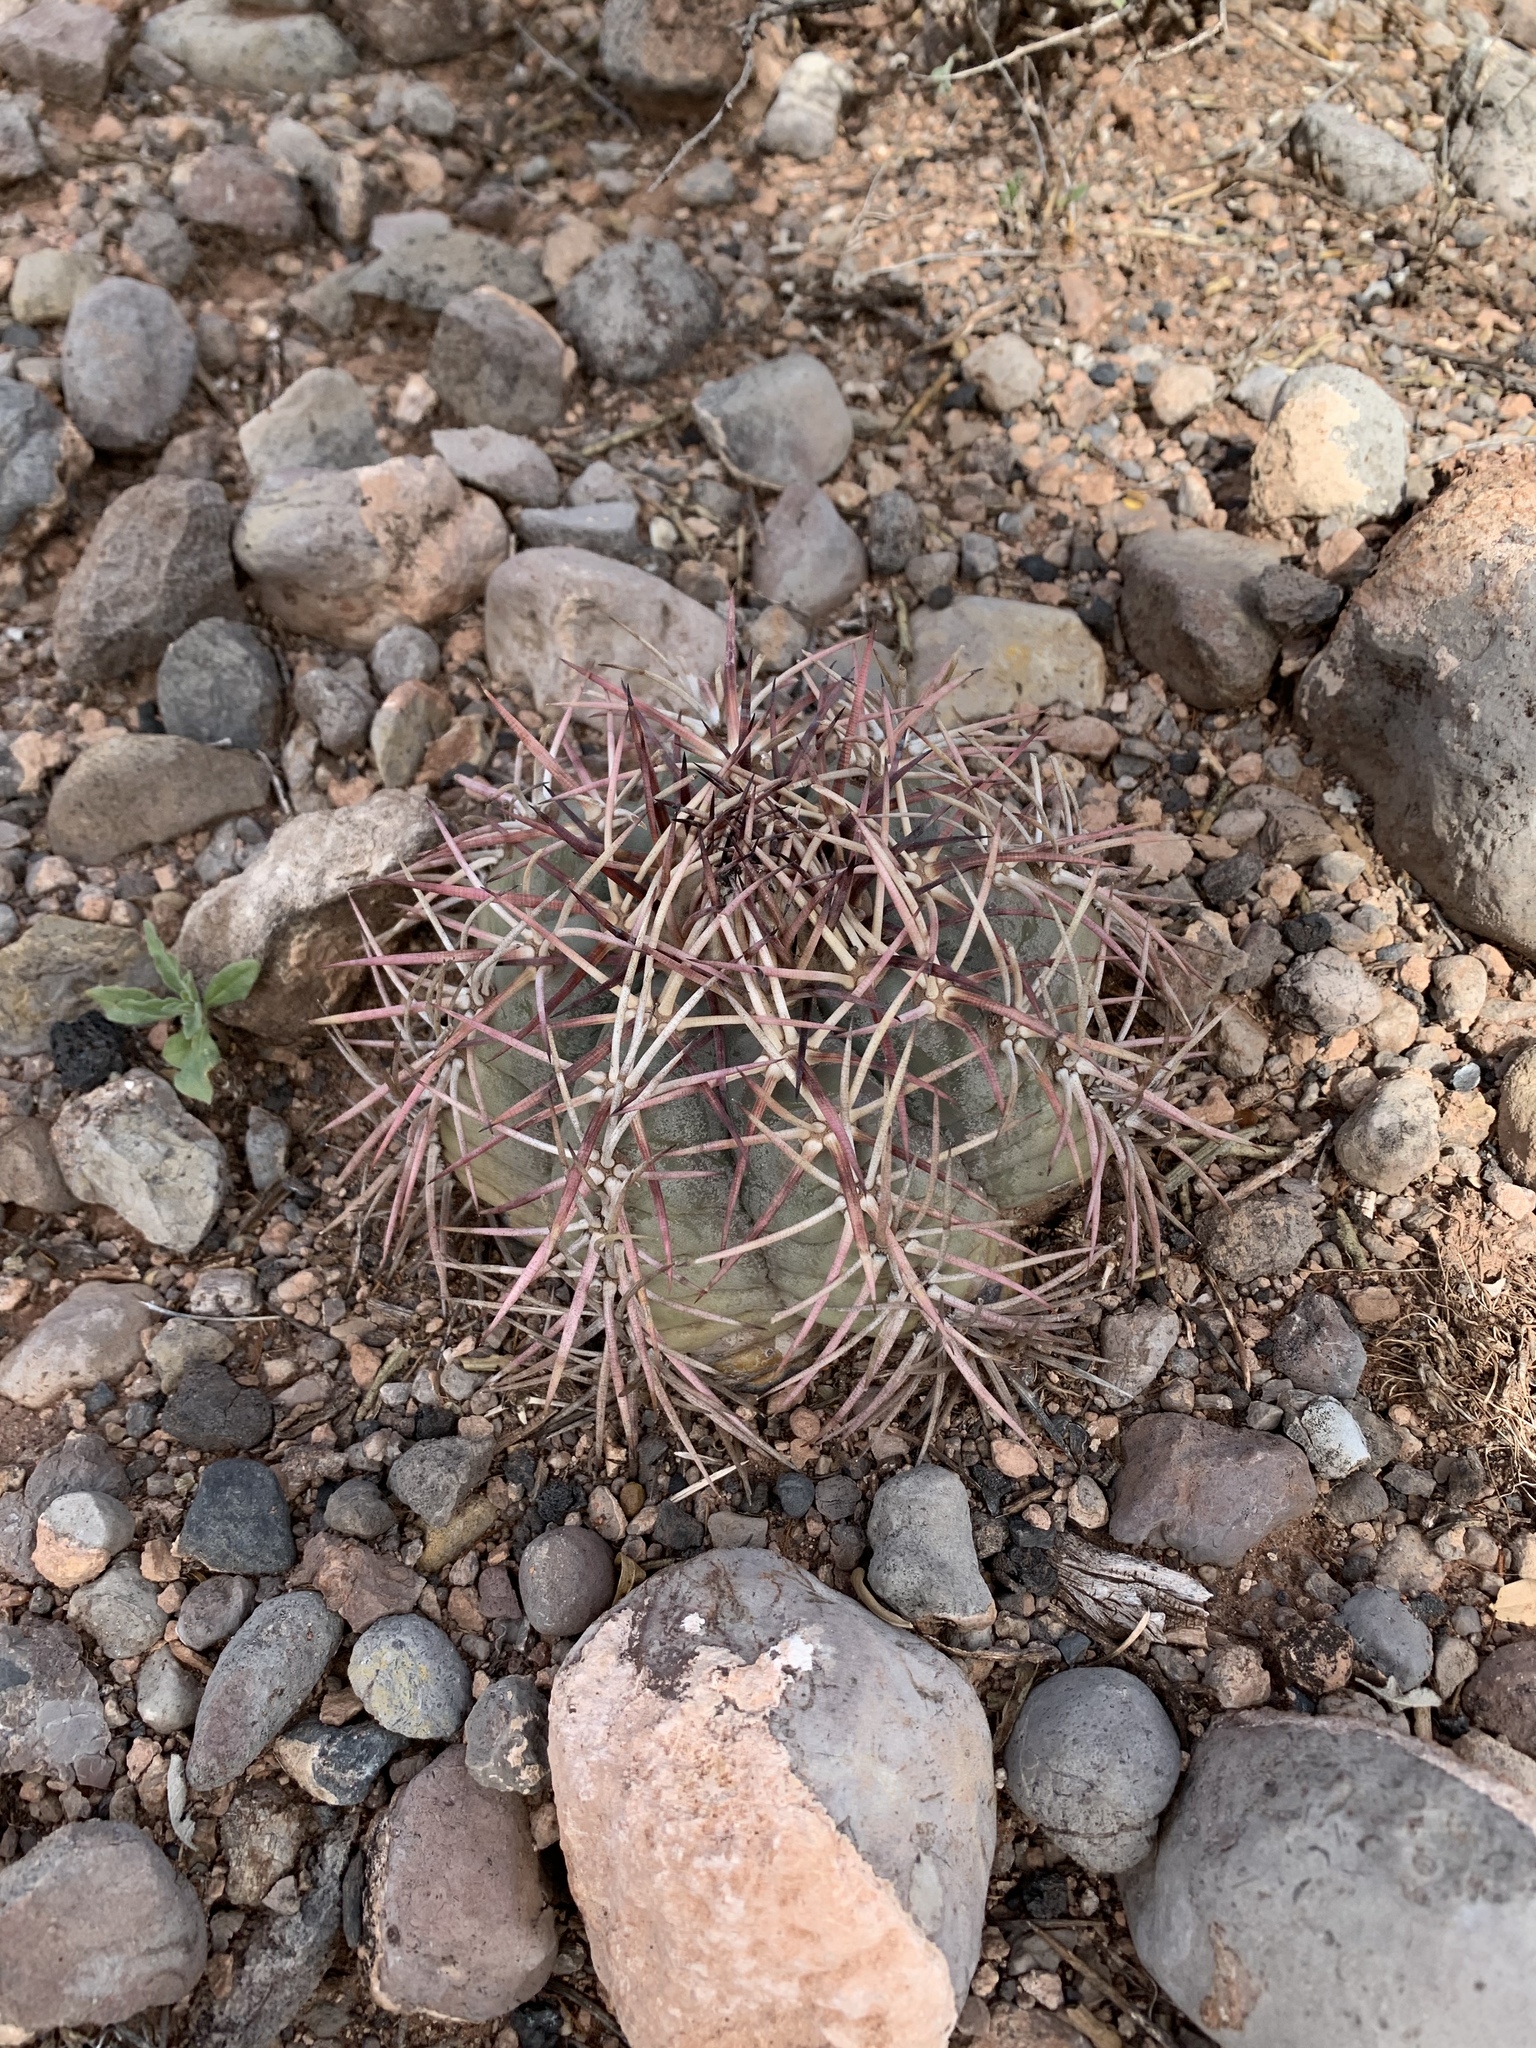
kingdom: Plantae
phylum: Tracheophyta
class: Magnoliopsida
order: Caryophyllales
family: Cactaceae
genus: Echinocactus
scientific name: Echinocactus horizonthalonius
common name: Devilshead
